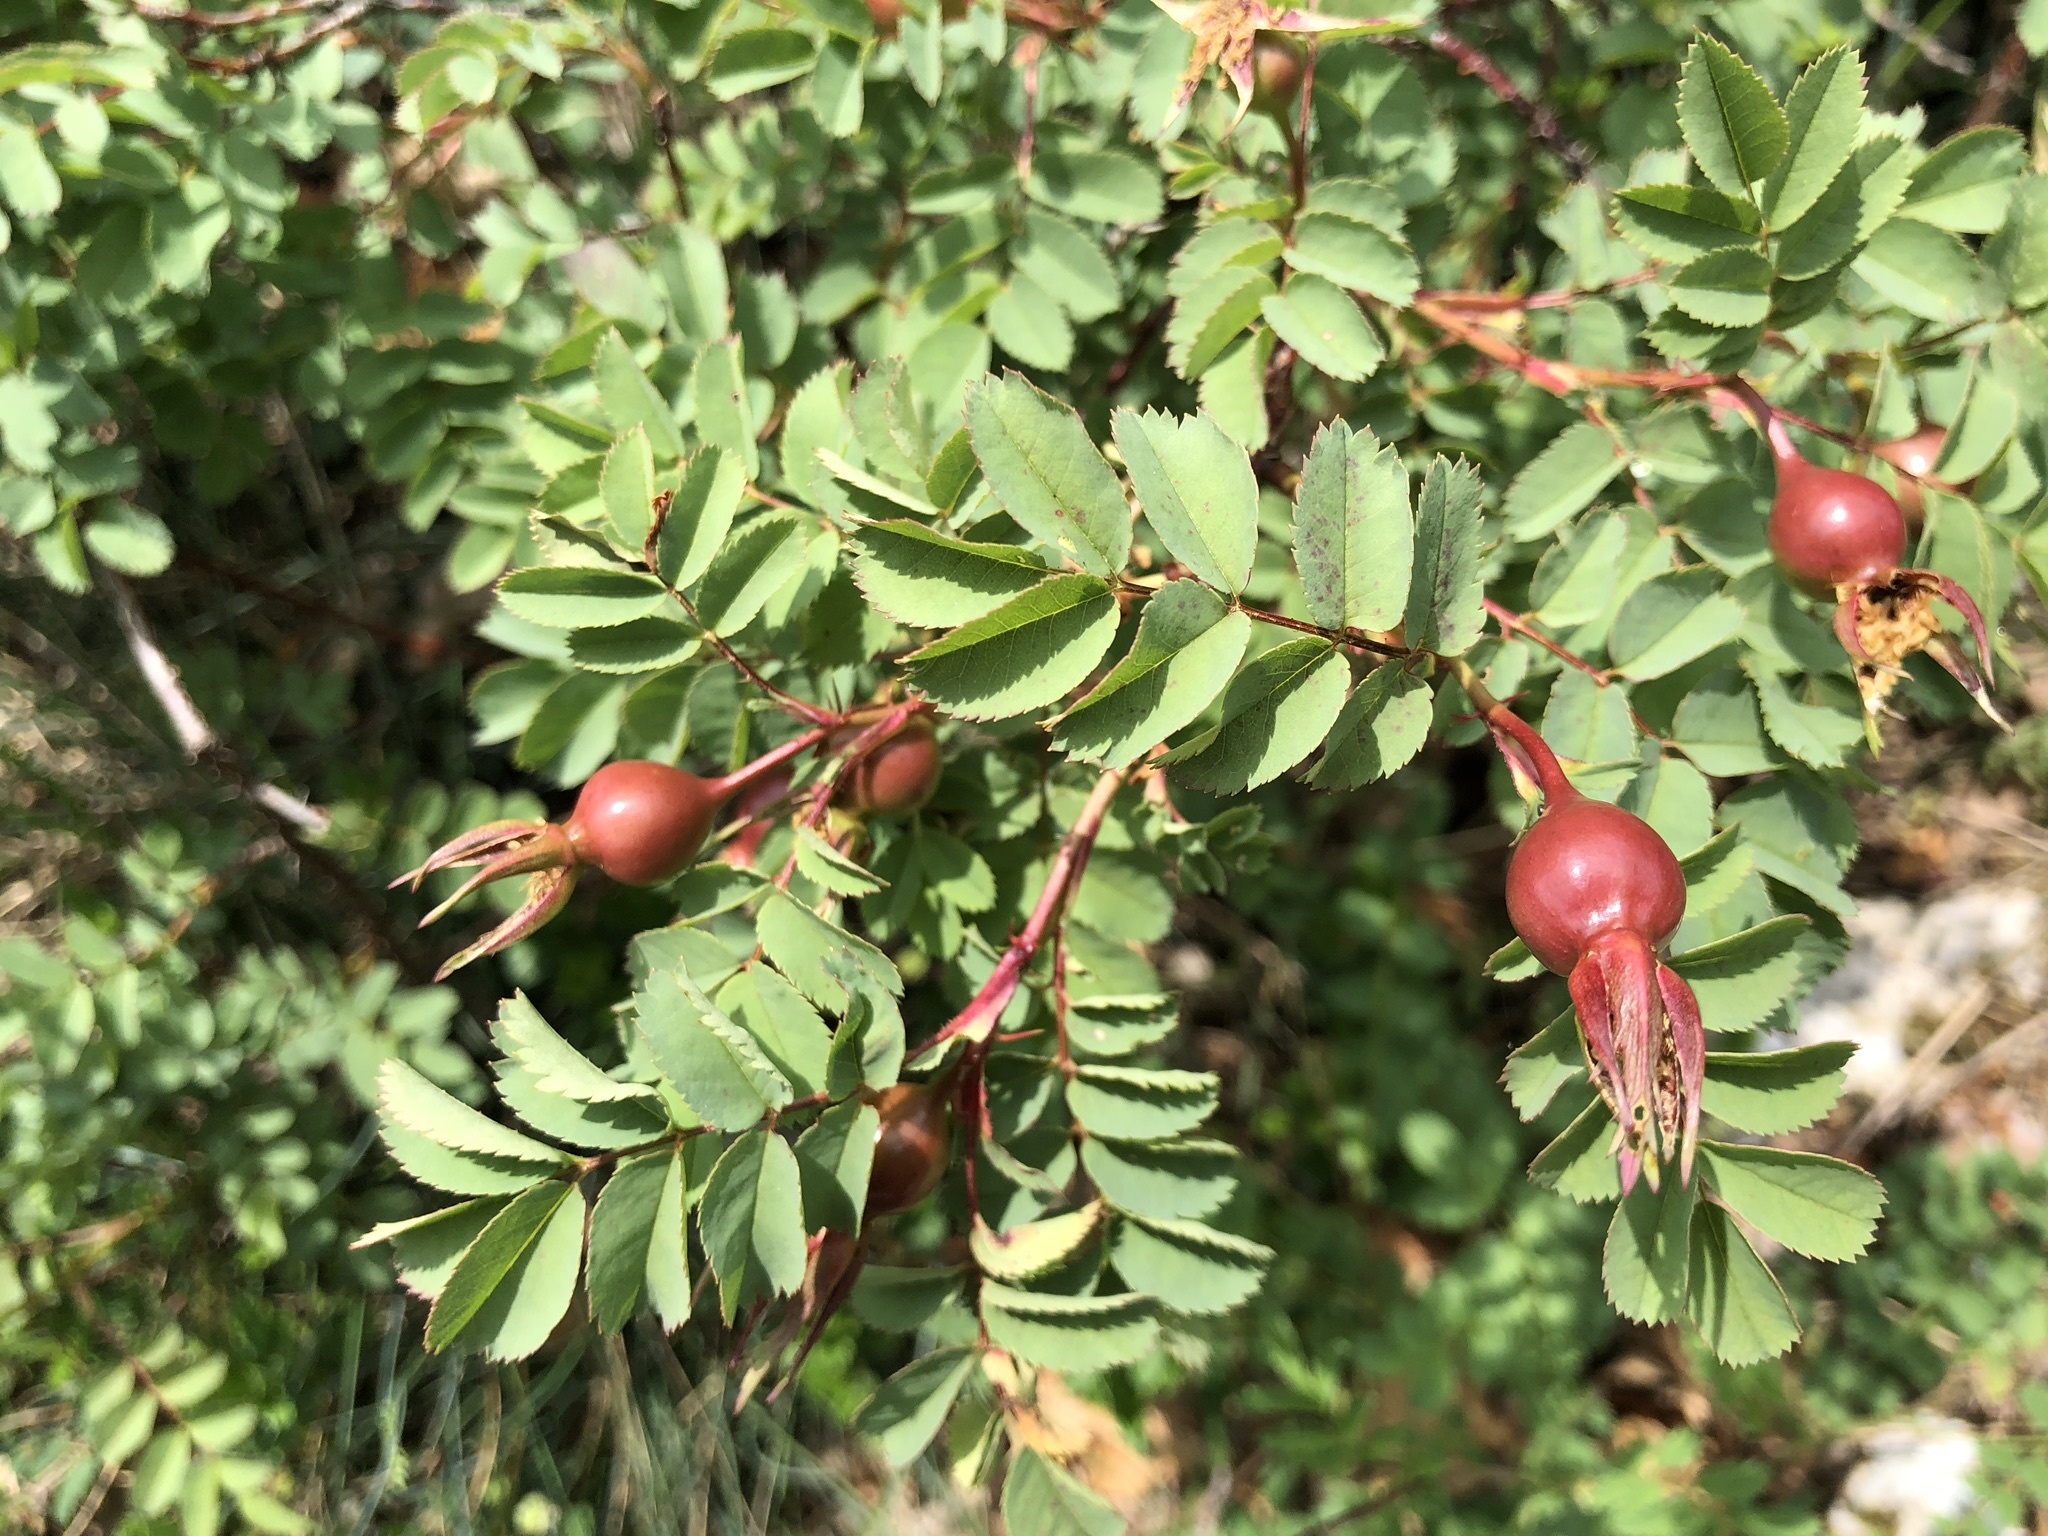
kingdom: Plantae
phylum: Tracheophyta
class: Magnoliopsida
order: Rosales
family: Rosaceae
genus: Rosa
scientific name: Rosa spinosissima
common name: Burnet rose
